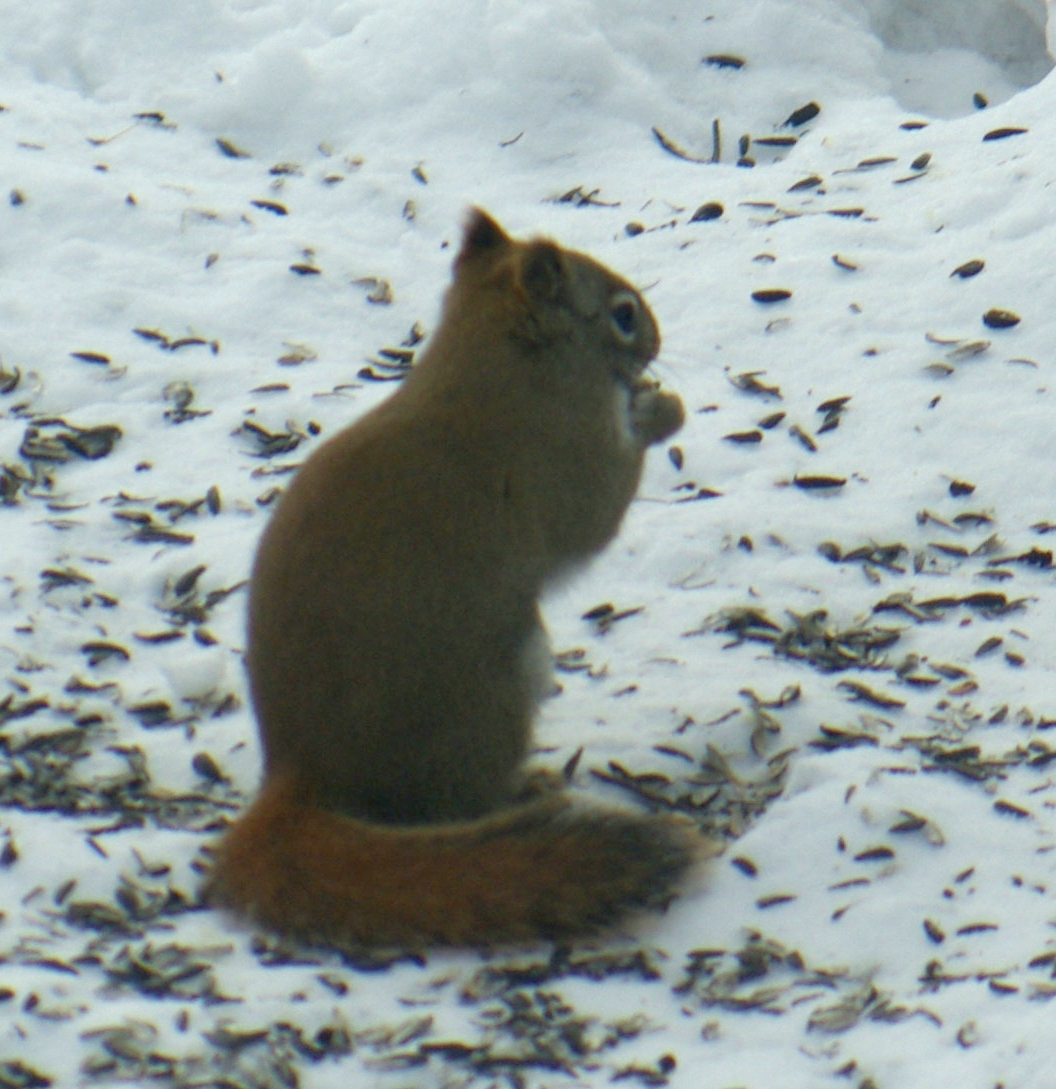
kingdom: Animalia
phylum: Chordata
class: Mammalia
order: Rodentia
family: Sciuridae
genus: Tamiasciurus
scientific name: Tamiasciurus hudsonicus
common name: Red squirrel
